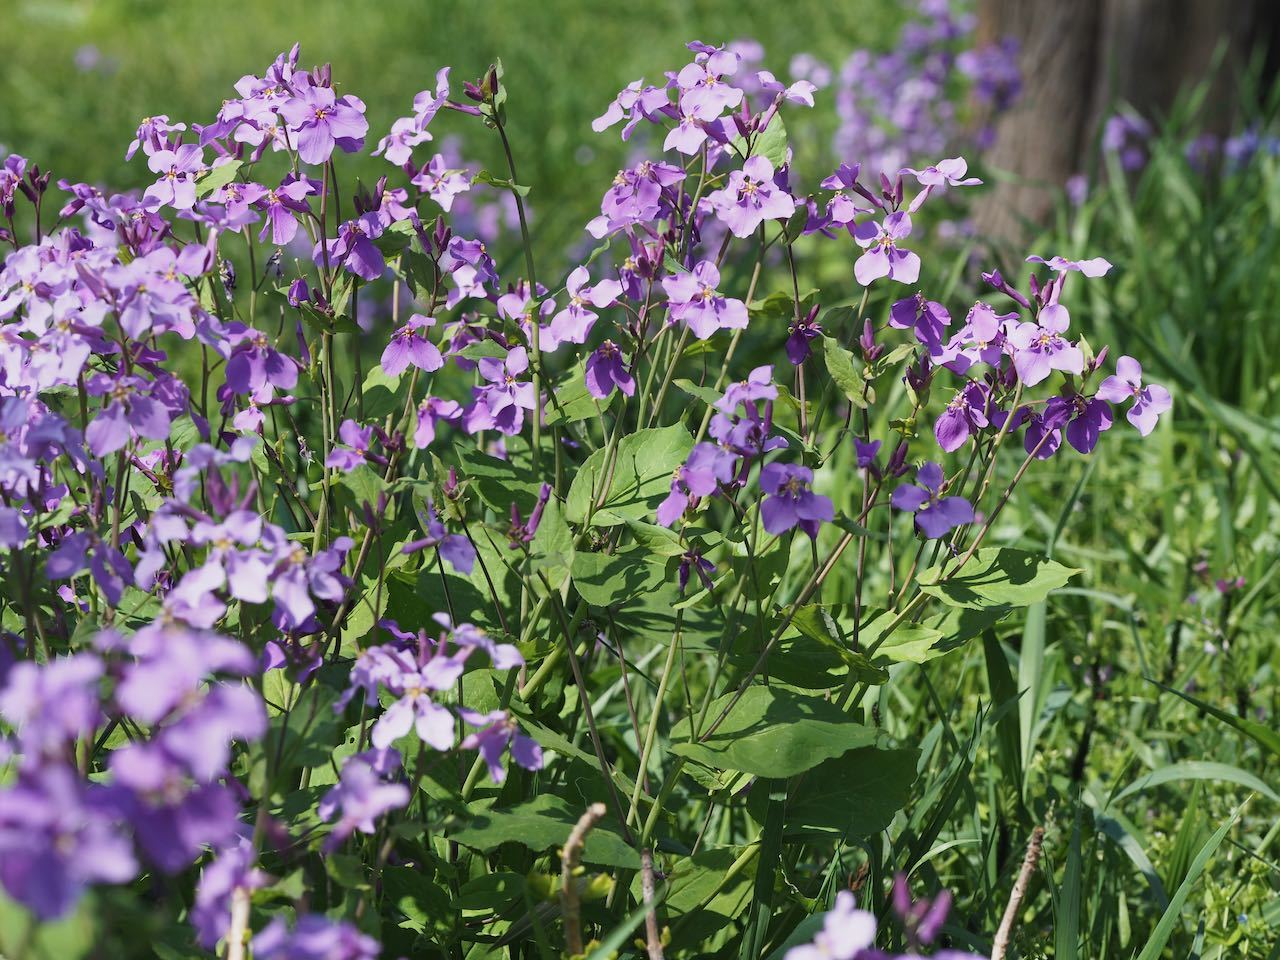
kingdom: Plantae
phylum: Tracheophyta
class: Magnoliopsida
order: Brassicales
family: Brassicaceae
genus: Orychophragmus
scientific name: Orychophragmus violaceus
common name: Mustard
